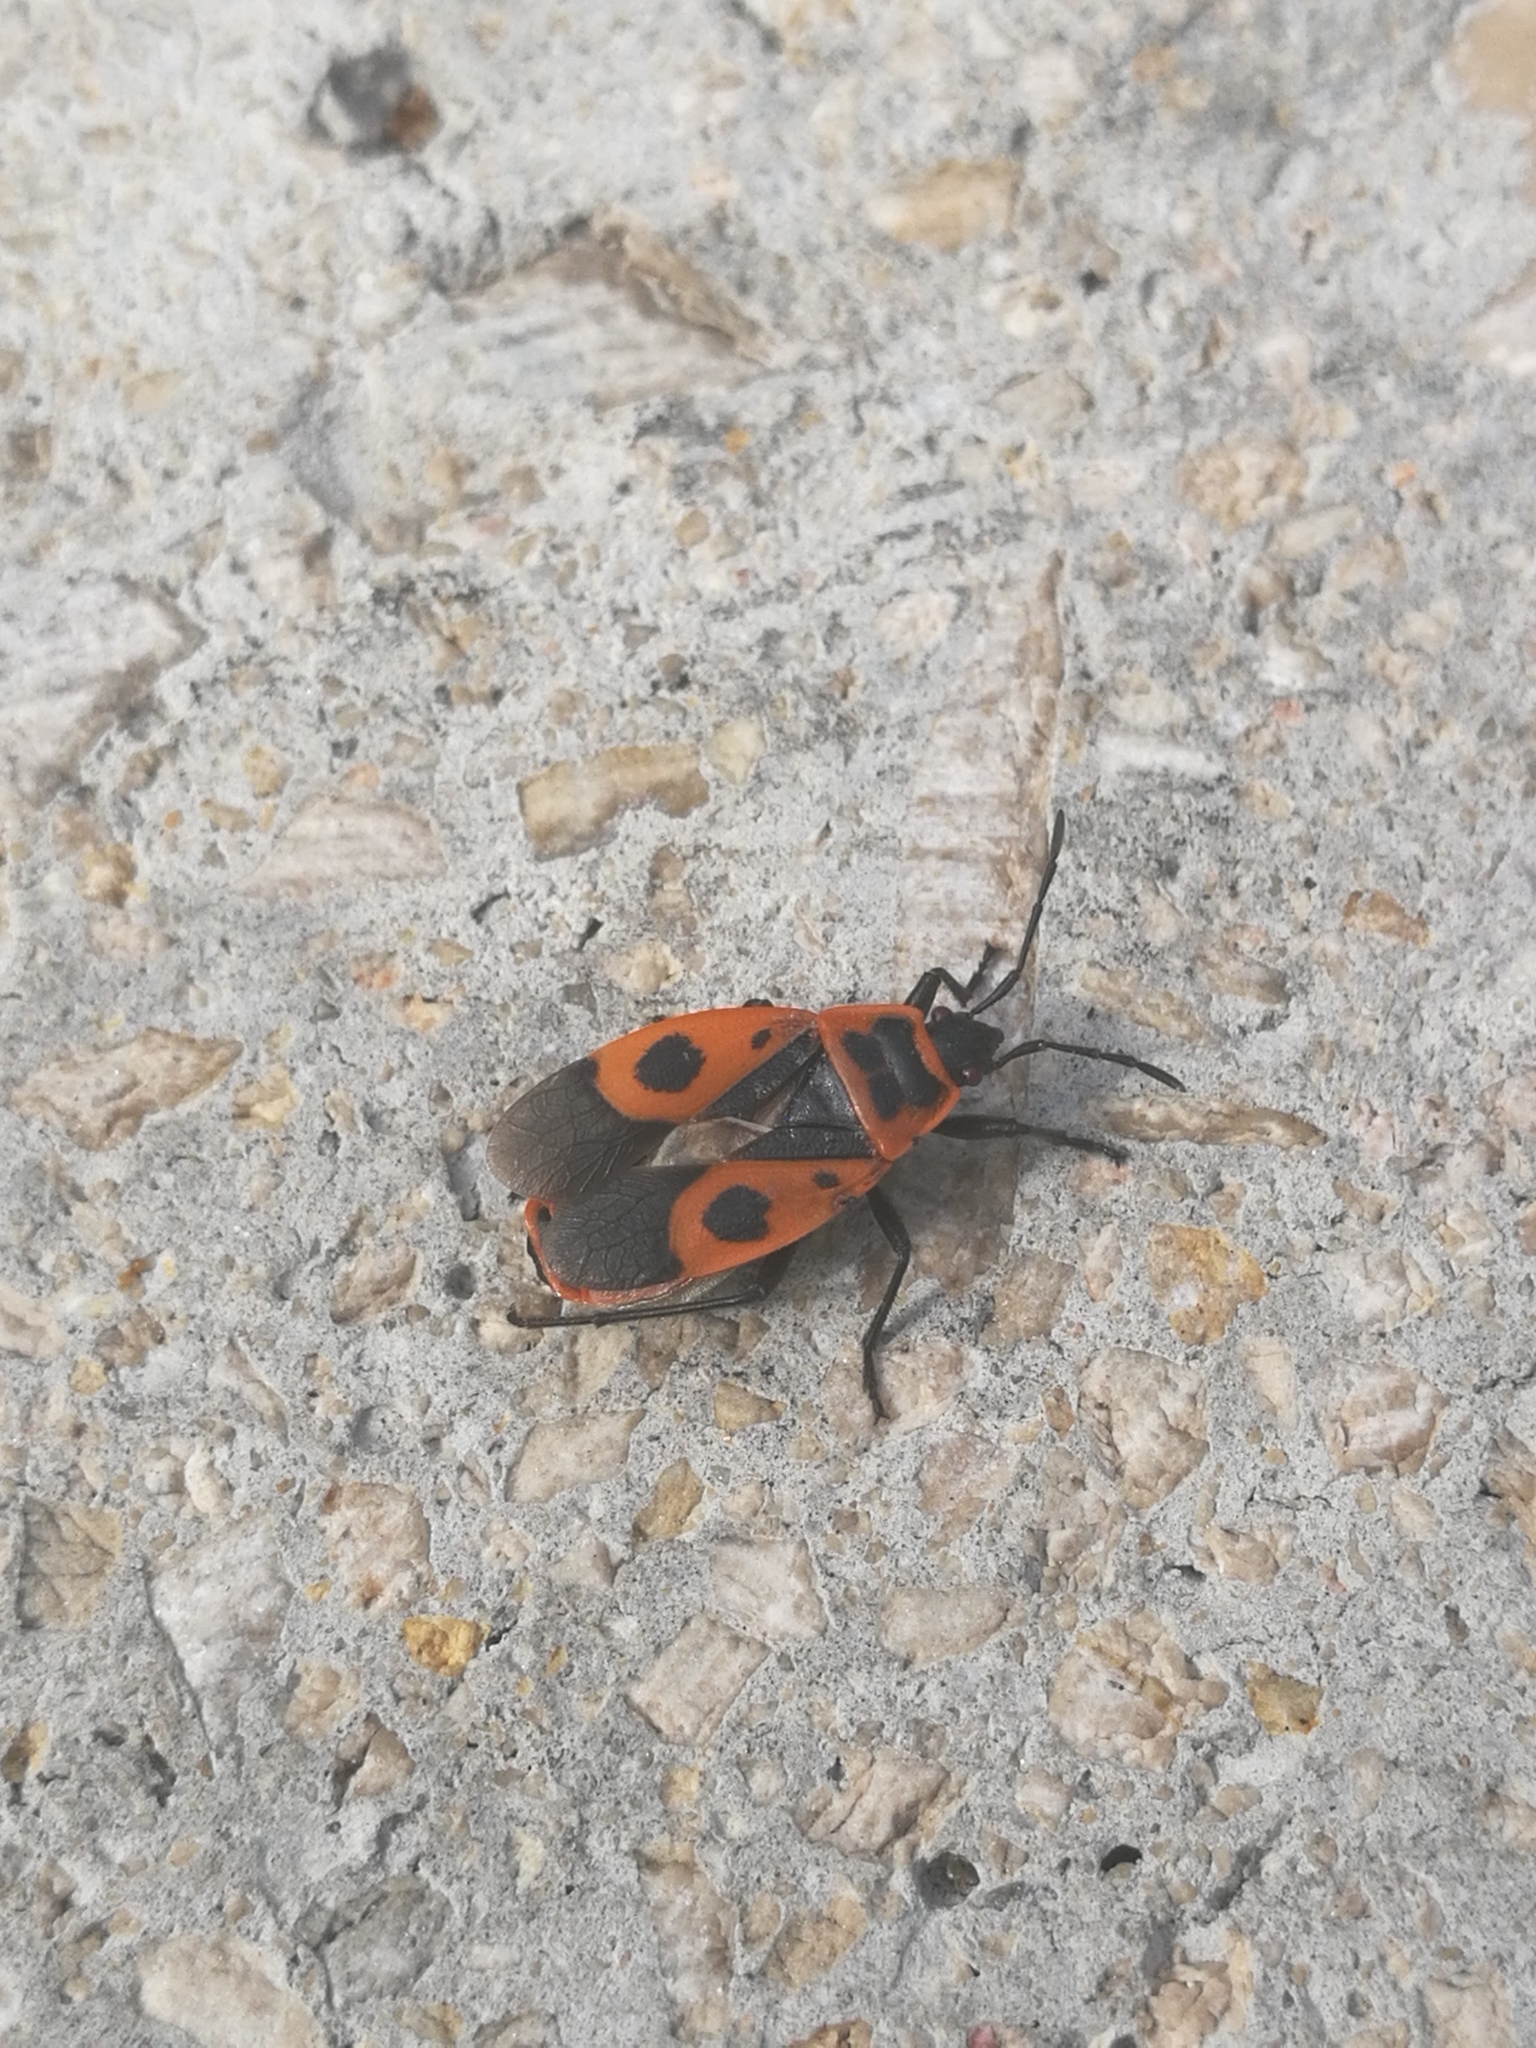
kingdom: Animalia
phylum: Arthropoda
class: Insecta
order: Hemiptera
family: Pyrrhocoridae
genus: Pyrrhocoris
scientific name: Pyrrhocoris apterus
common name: Firebug
